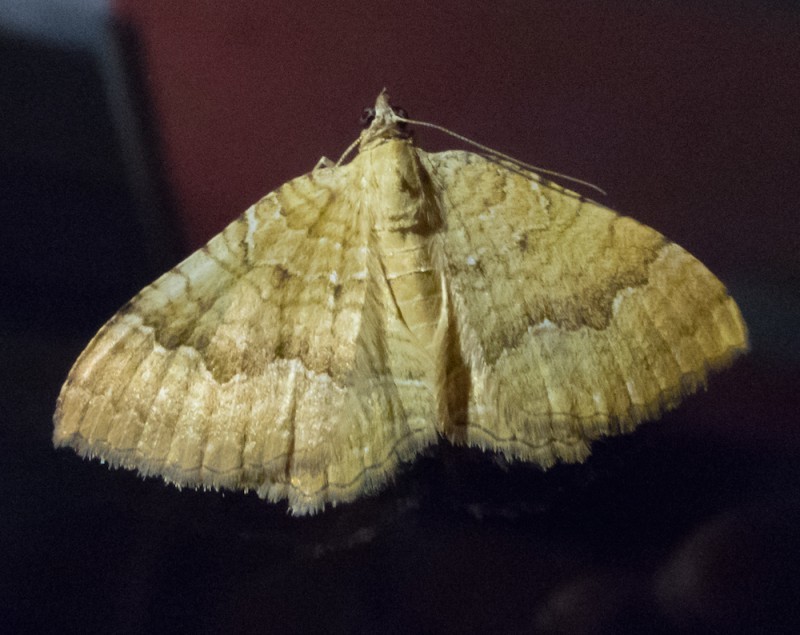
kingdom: Animalia
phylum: Arthropoda
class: Insecta
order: Lepidoptera
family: Geometridae
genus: Camptogramma
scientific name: Camptogramma bilineata
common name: Yellow shell
